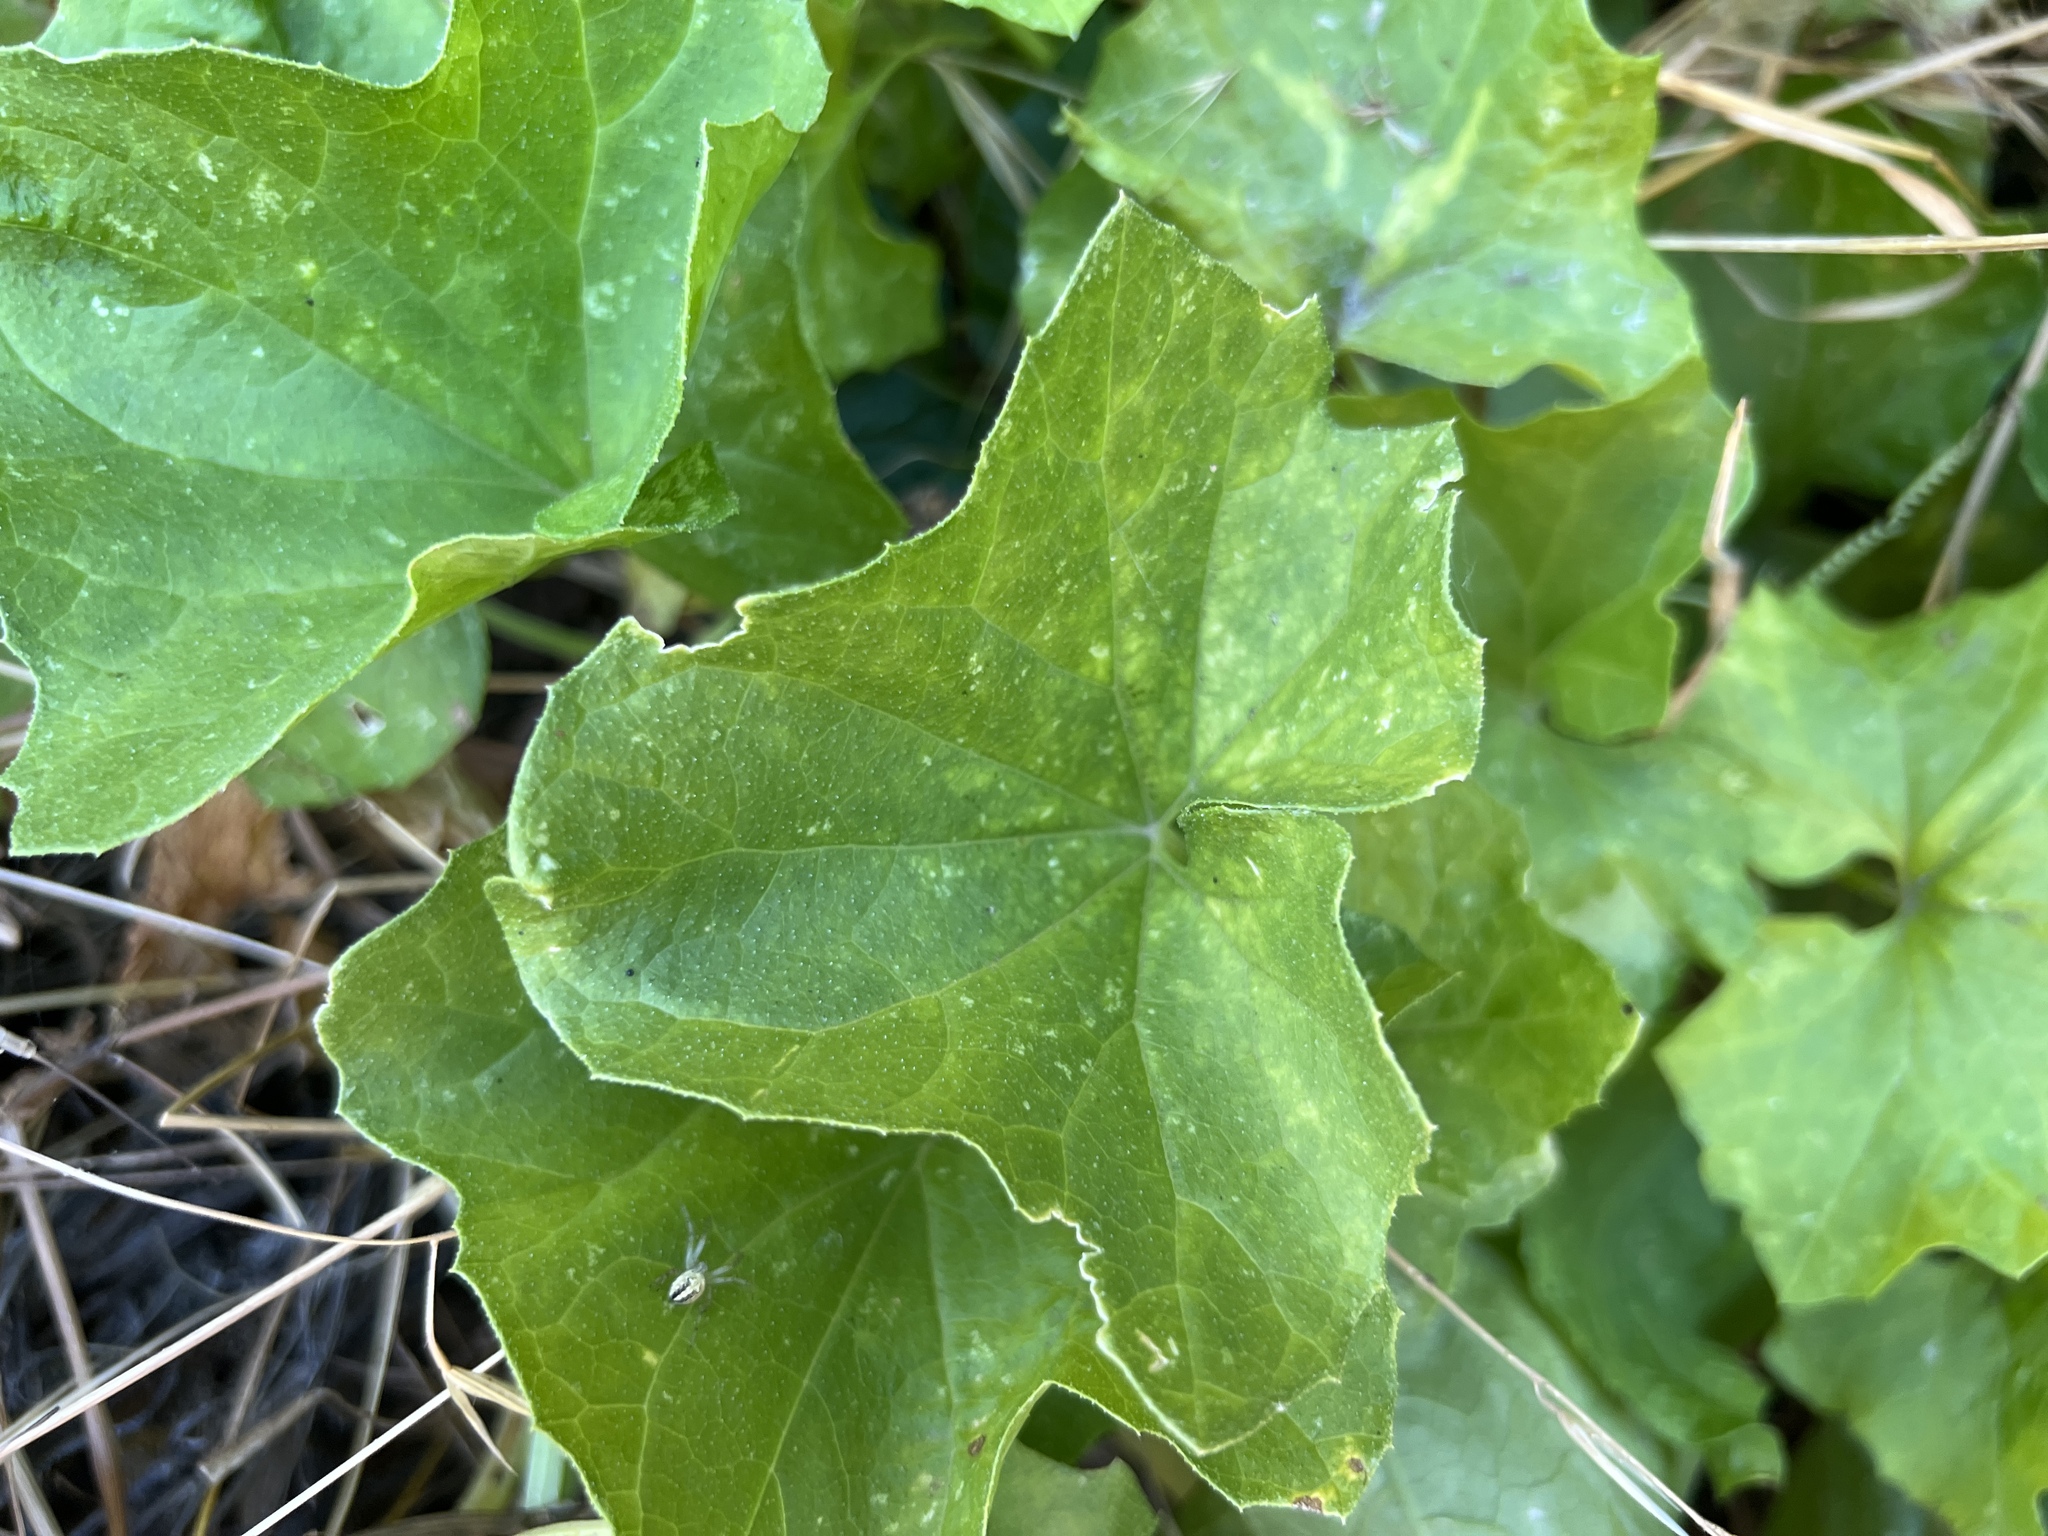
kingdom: Plantae
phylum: Tracheophyta
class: Magnoliopsida
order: Cucurbitales
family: Cucurbitaceae
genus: Marah
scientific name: Marah oregana
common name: Coastal manroot
